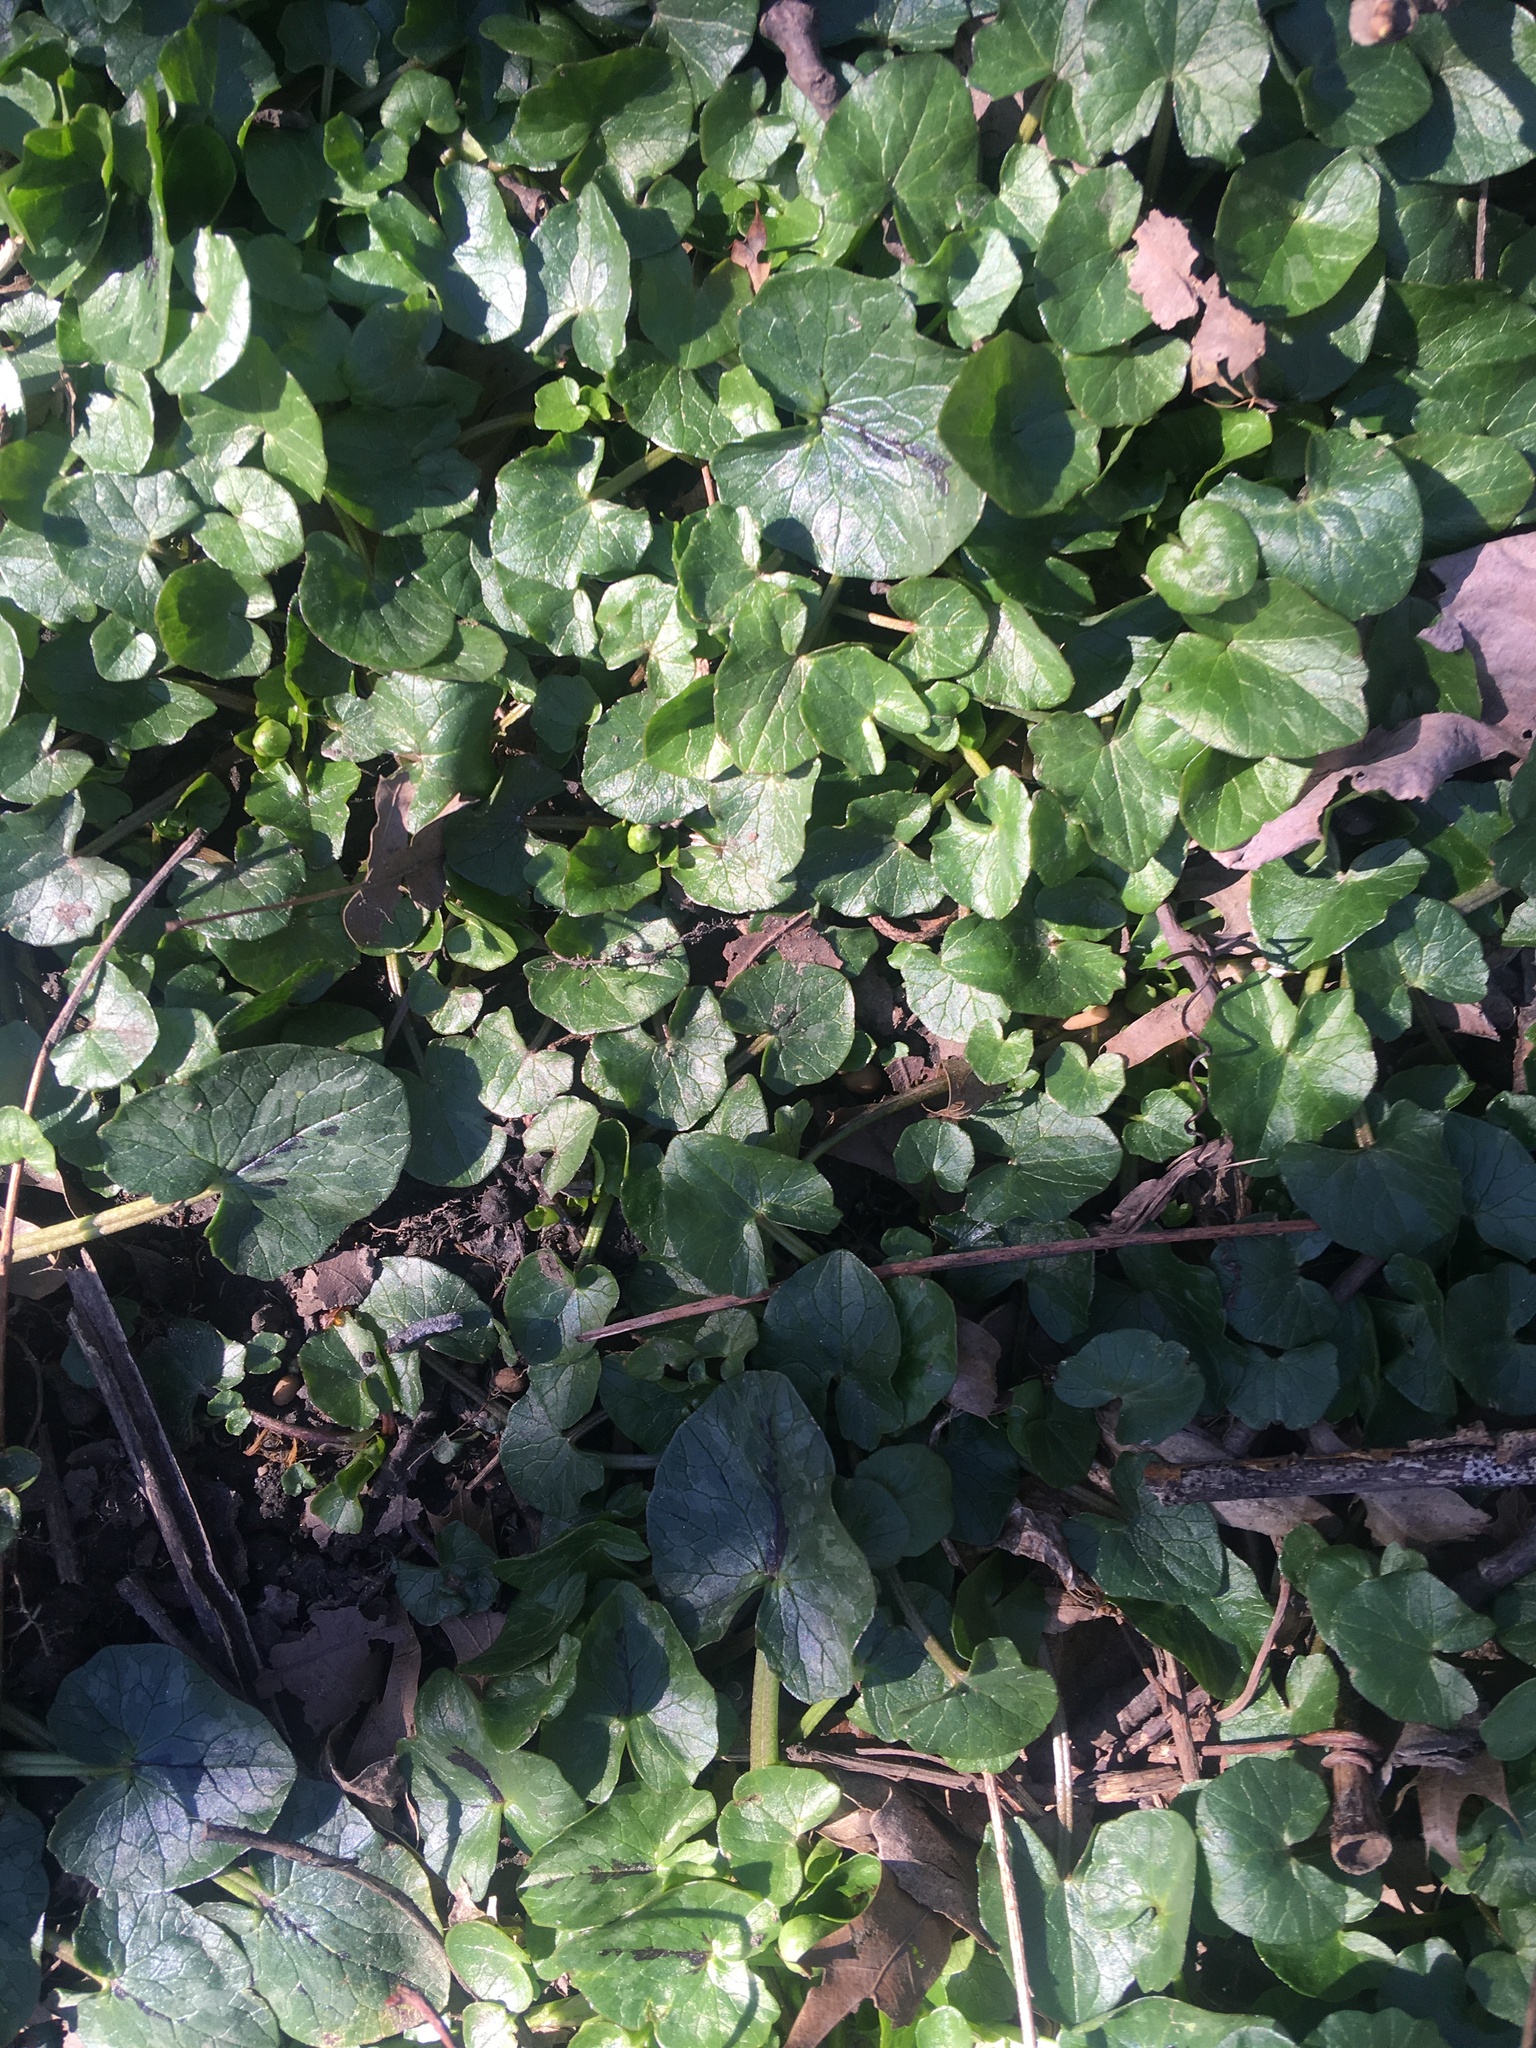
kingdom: Plantae
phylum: Tracheophyta
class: Magnoliopsida
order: Ranunculales
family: Ranunculaceae
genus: Ficaria
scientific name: Ficaria verna
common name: Lesser celandine
